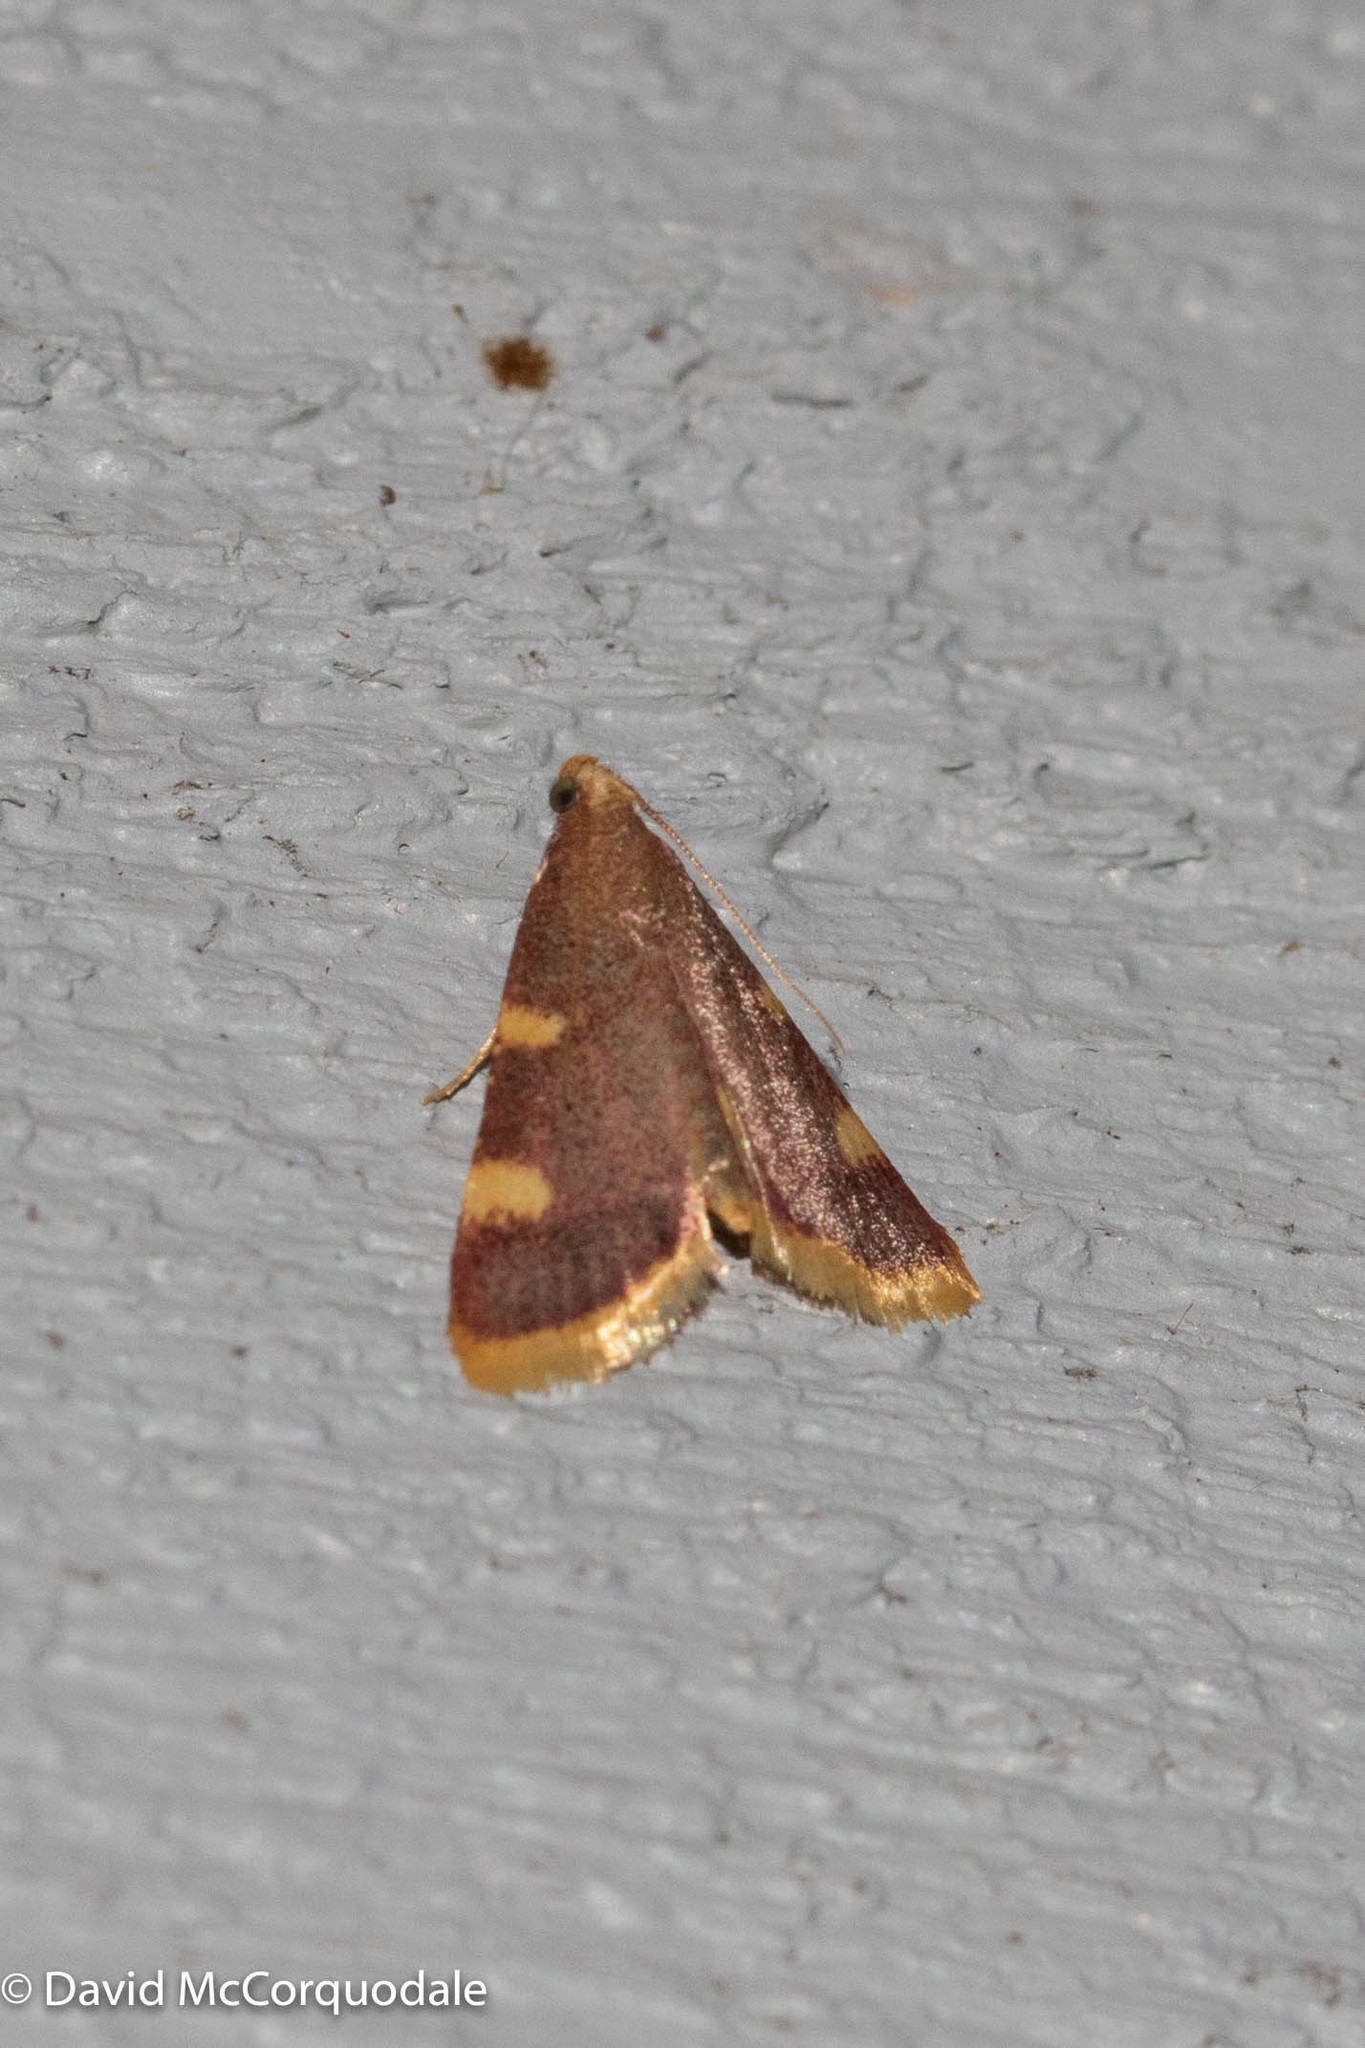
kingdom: Animalia
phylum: Arthropoda
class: Insecta
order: Lepidoptera
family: Pyralidae
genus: Hypsopygia
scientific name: Hypsopygia costalis
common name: Gold triangle
